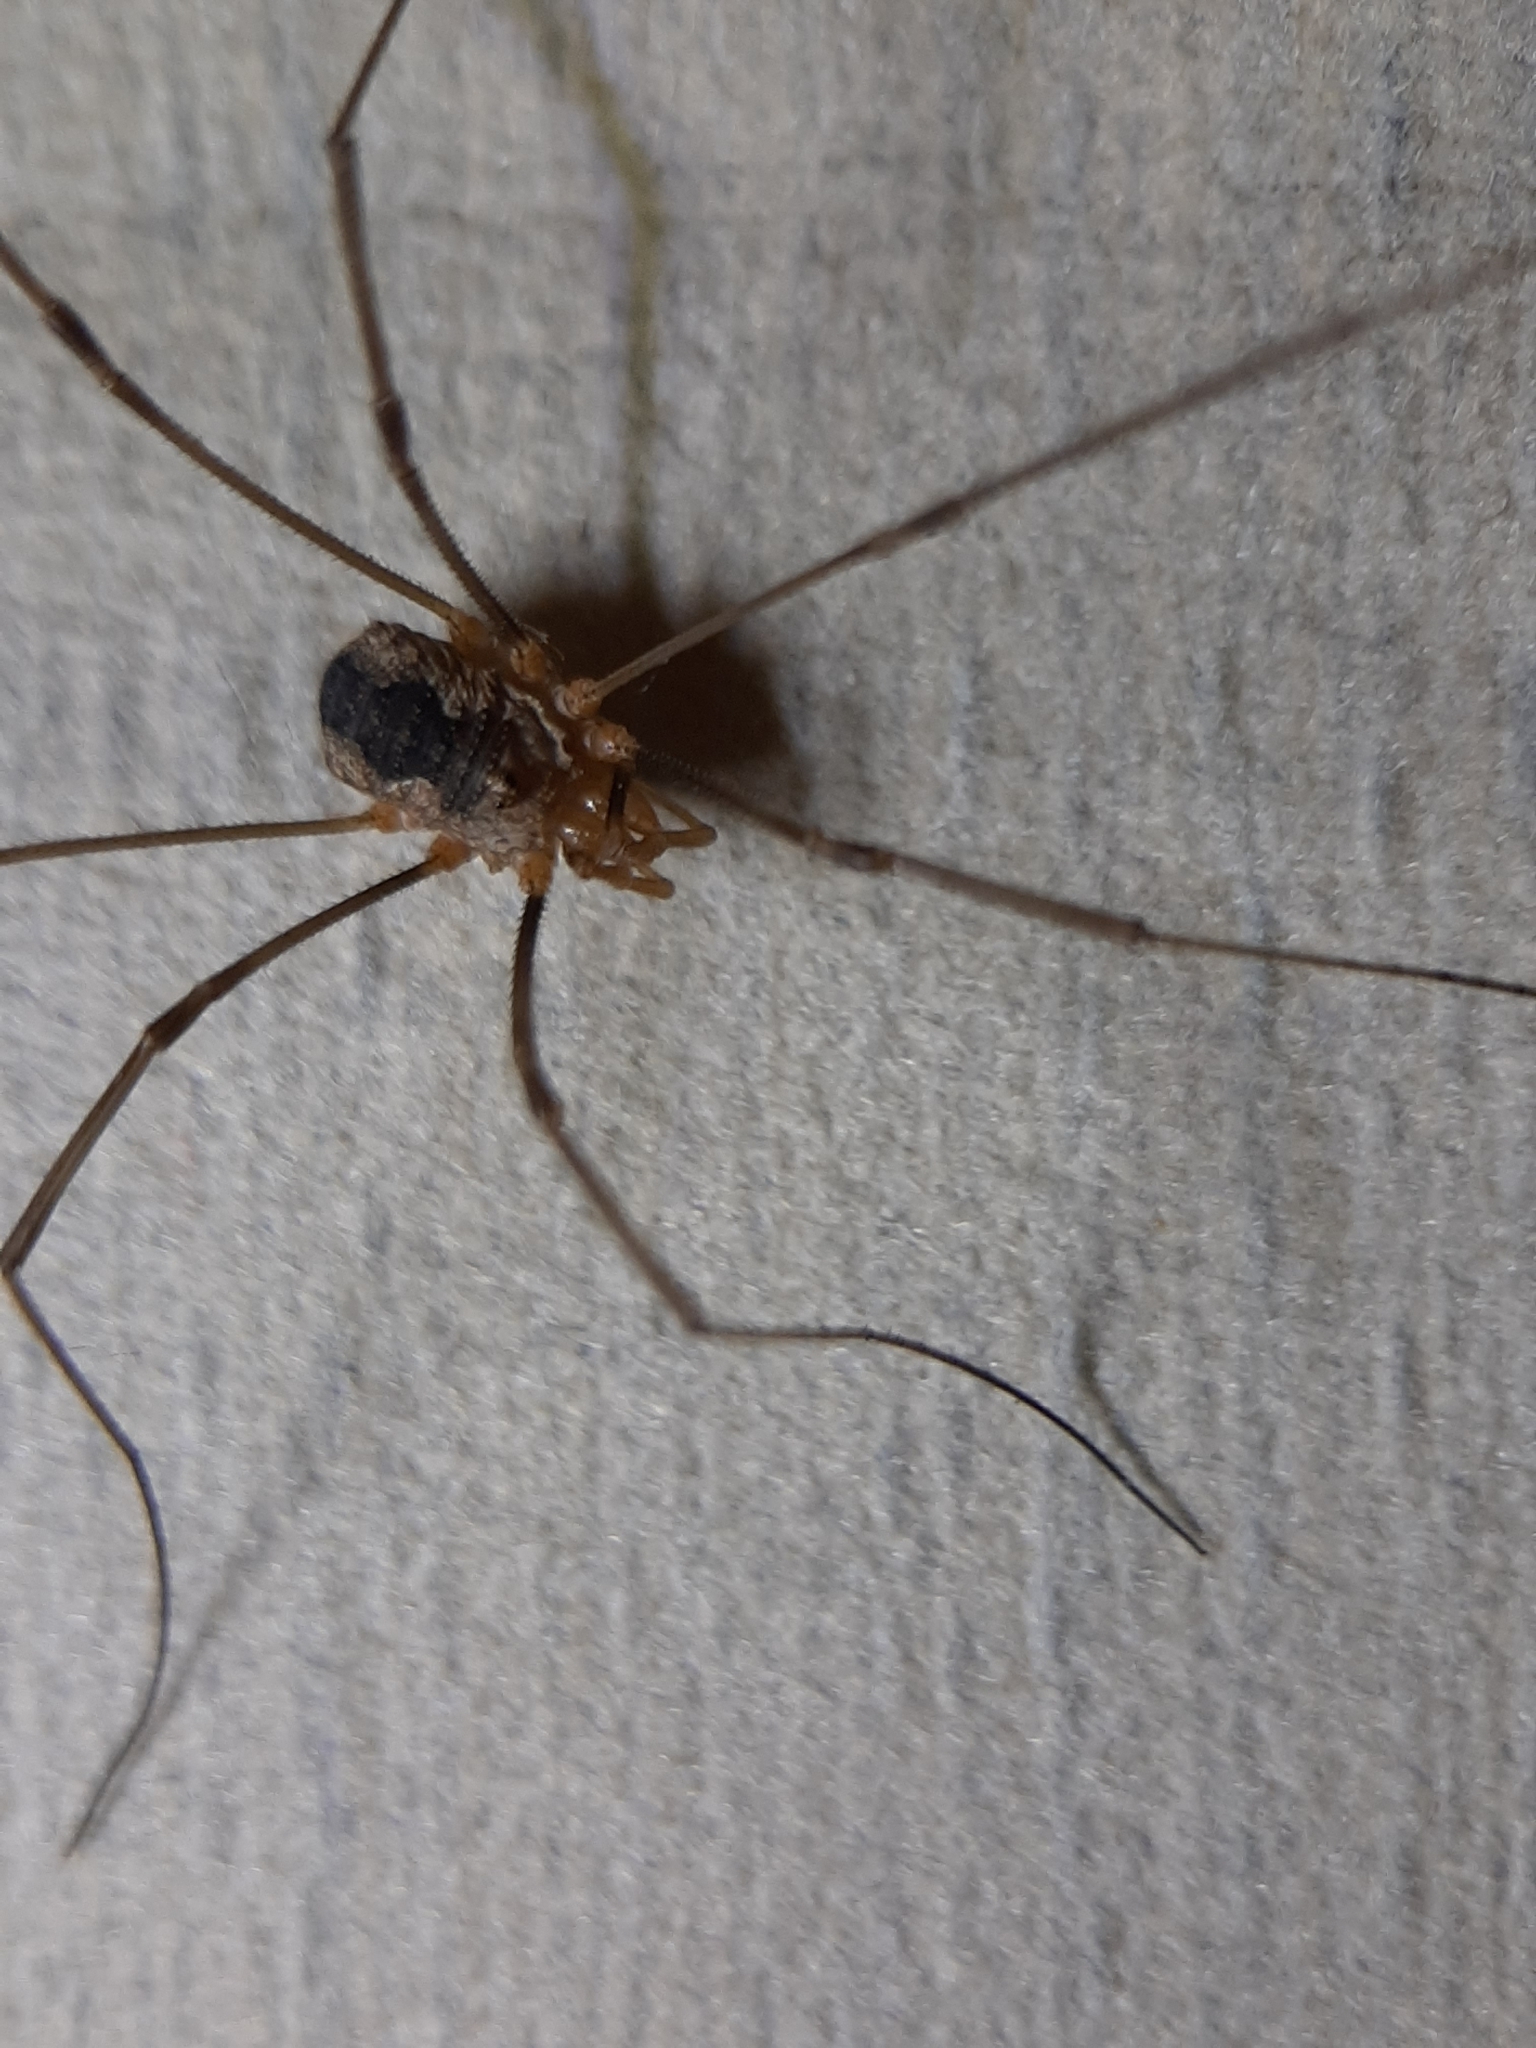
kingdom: Animalia
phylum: Arthropoda
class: Arachnida
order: Opiliones
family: Phalangiidae
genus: Phalangium
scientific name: Phalangium opilio
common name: Daddy longleg
